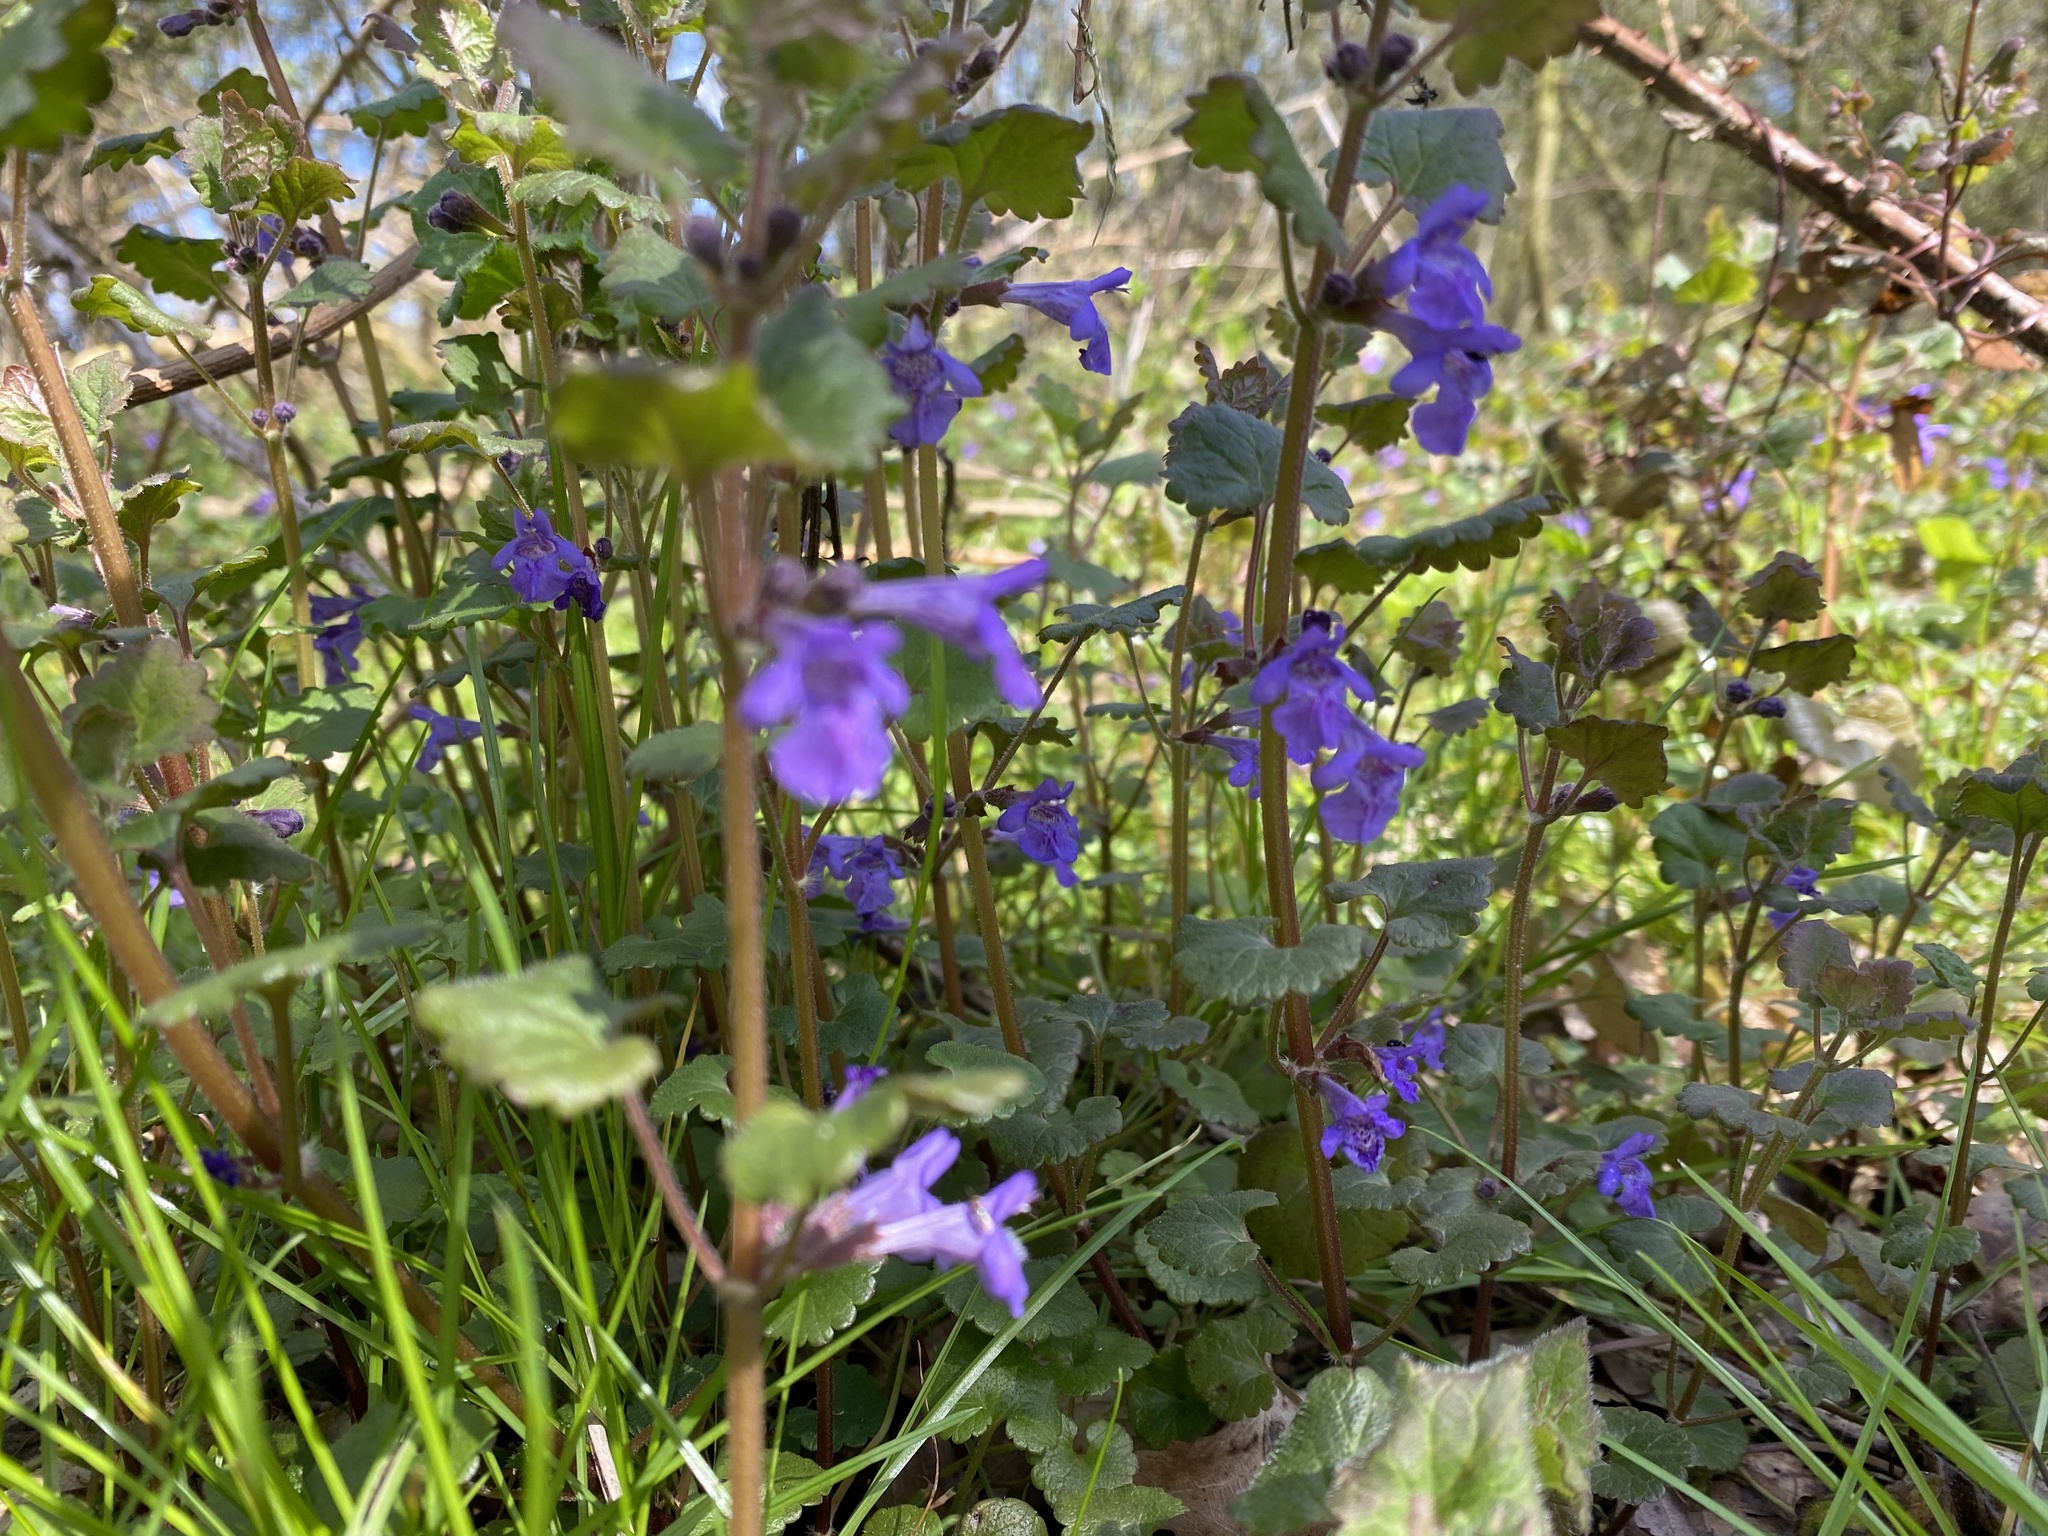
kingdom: Plantae
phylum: Tracheophyta
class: Magnoliopsida
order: Lamiales
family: Lamiaceae
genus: Glechoma
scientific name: Glechoma hederacea
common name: Ground ivy
